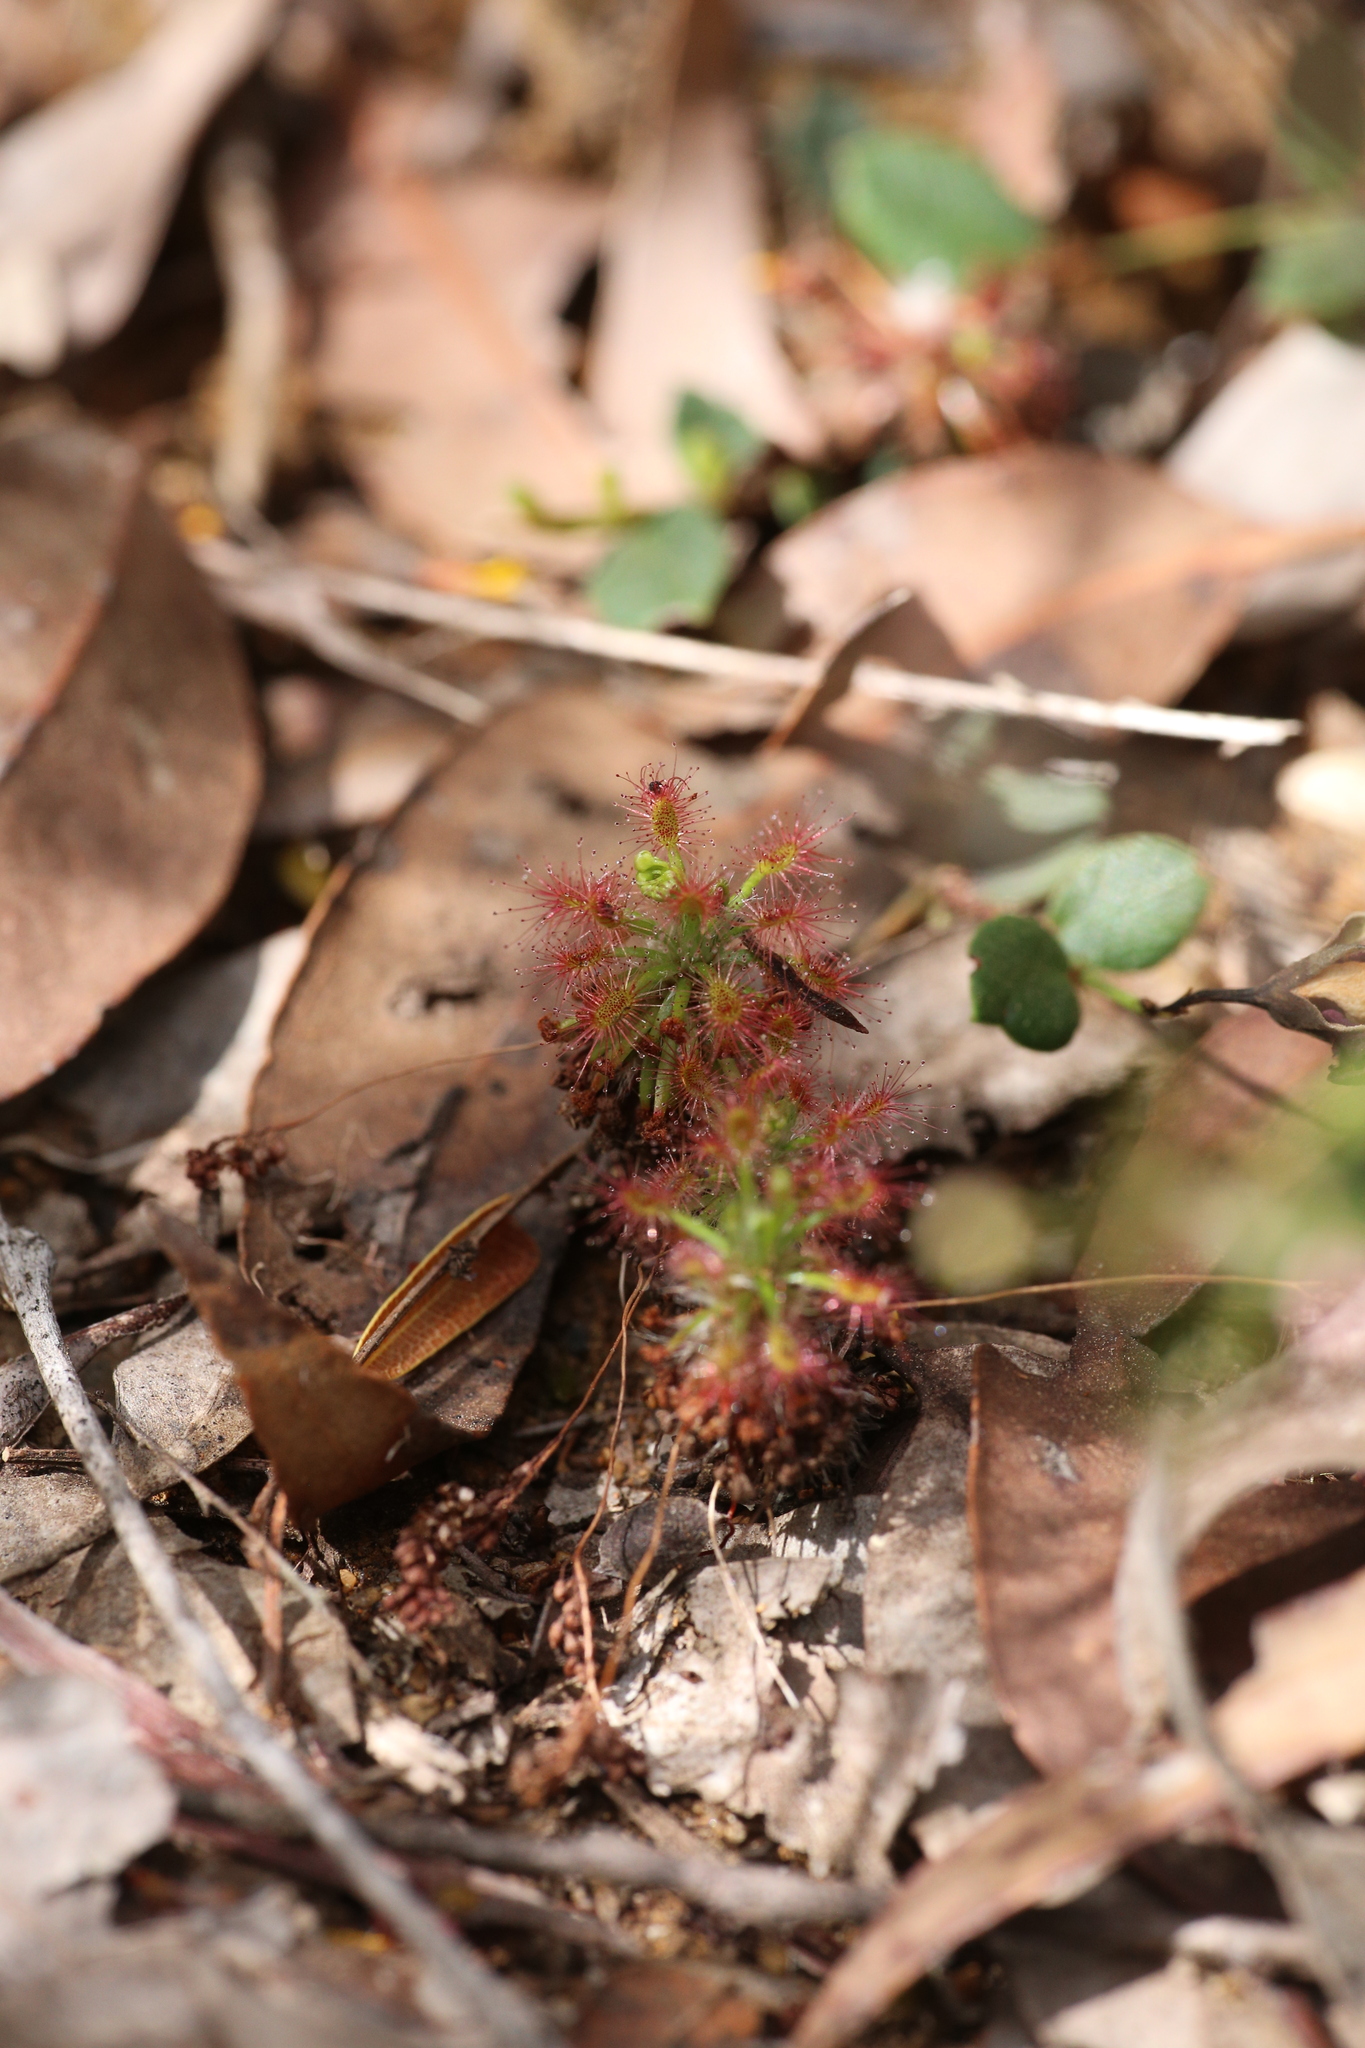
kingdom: Plantae
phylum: Tracheophyta
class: Magnoliopsida
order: Caryophyllales
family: Droseraceae
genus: Drosera
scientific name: Drosera paleacea
